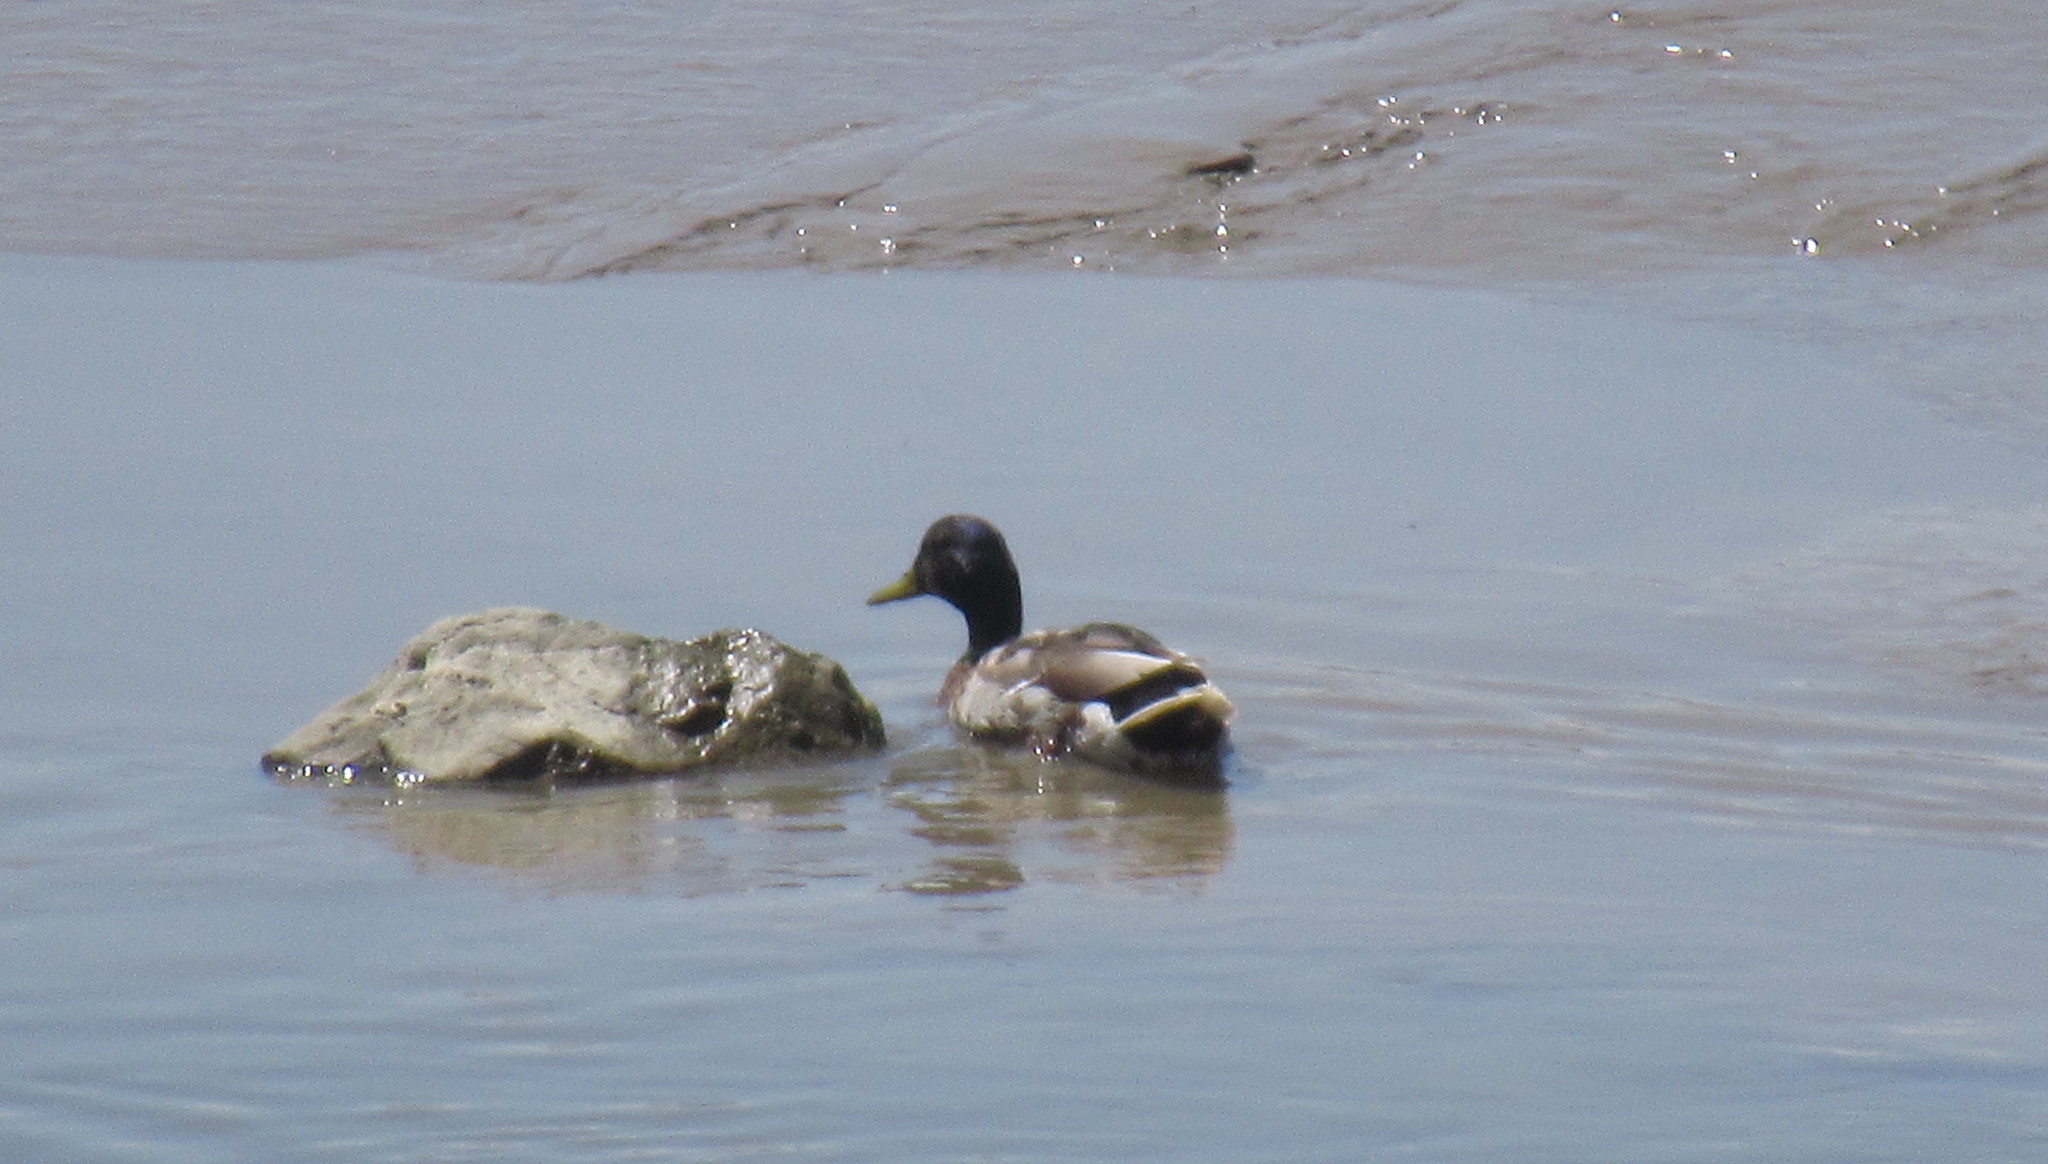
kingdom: Animalia
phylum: Chordata
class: Aves
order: Anseriformes
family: Anatidae
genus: Anas
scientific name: Anas platyrhynchos
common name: Mallard
